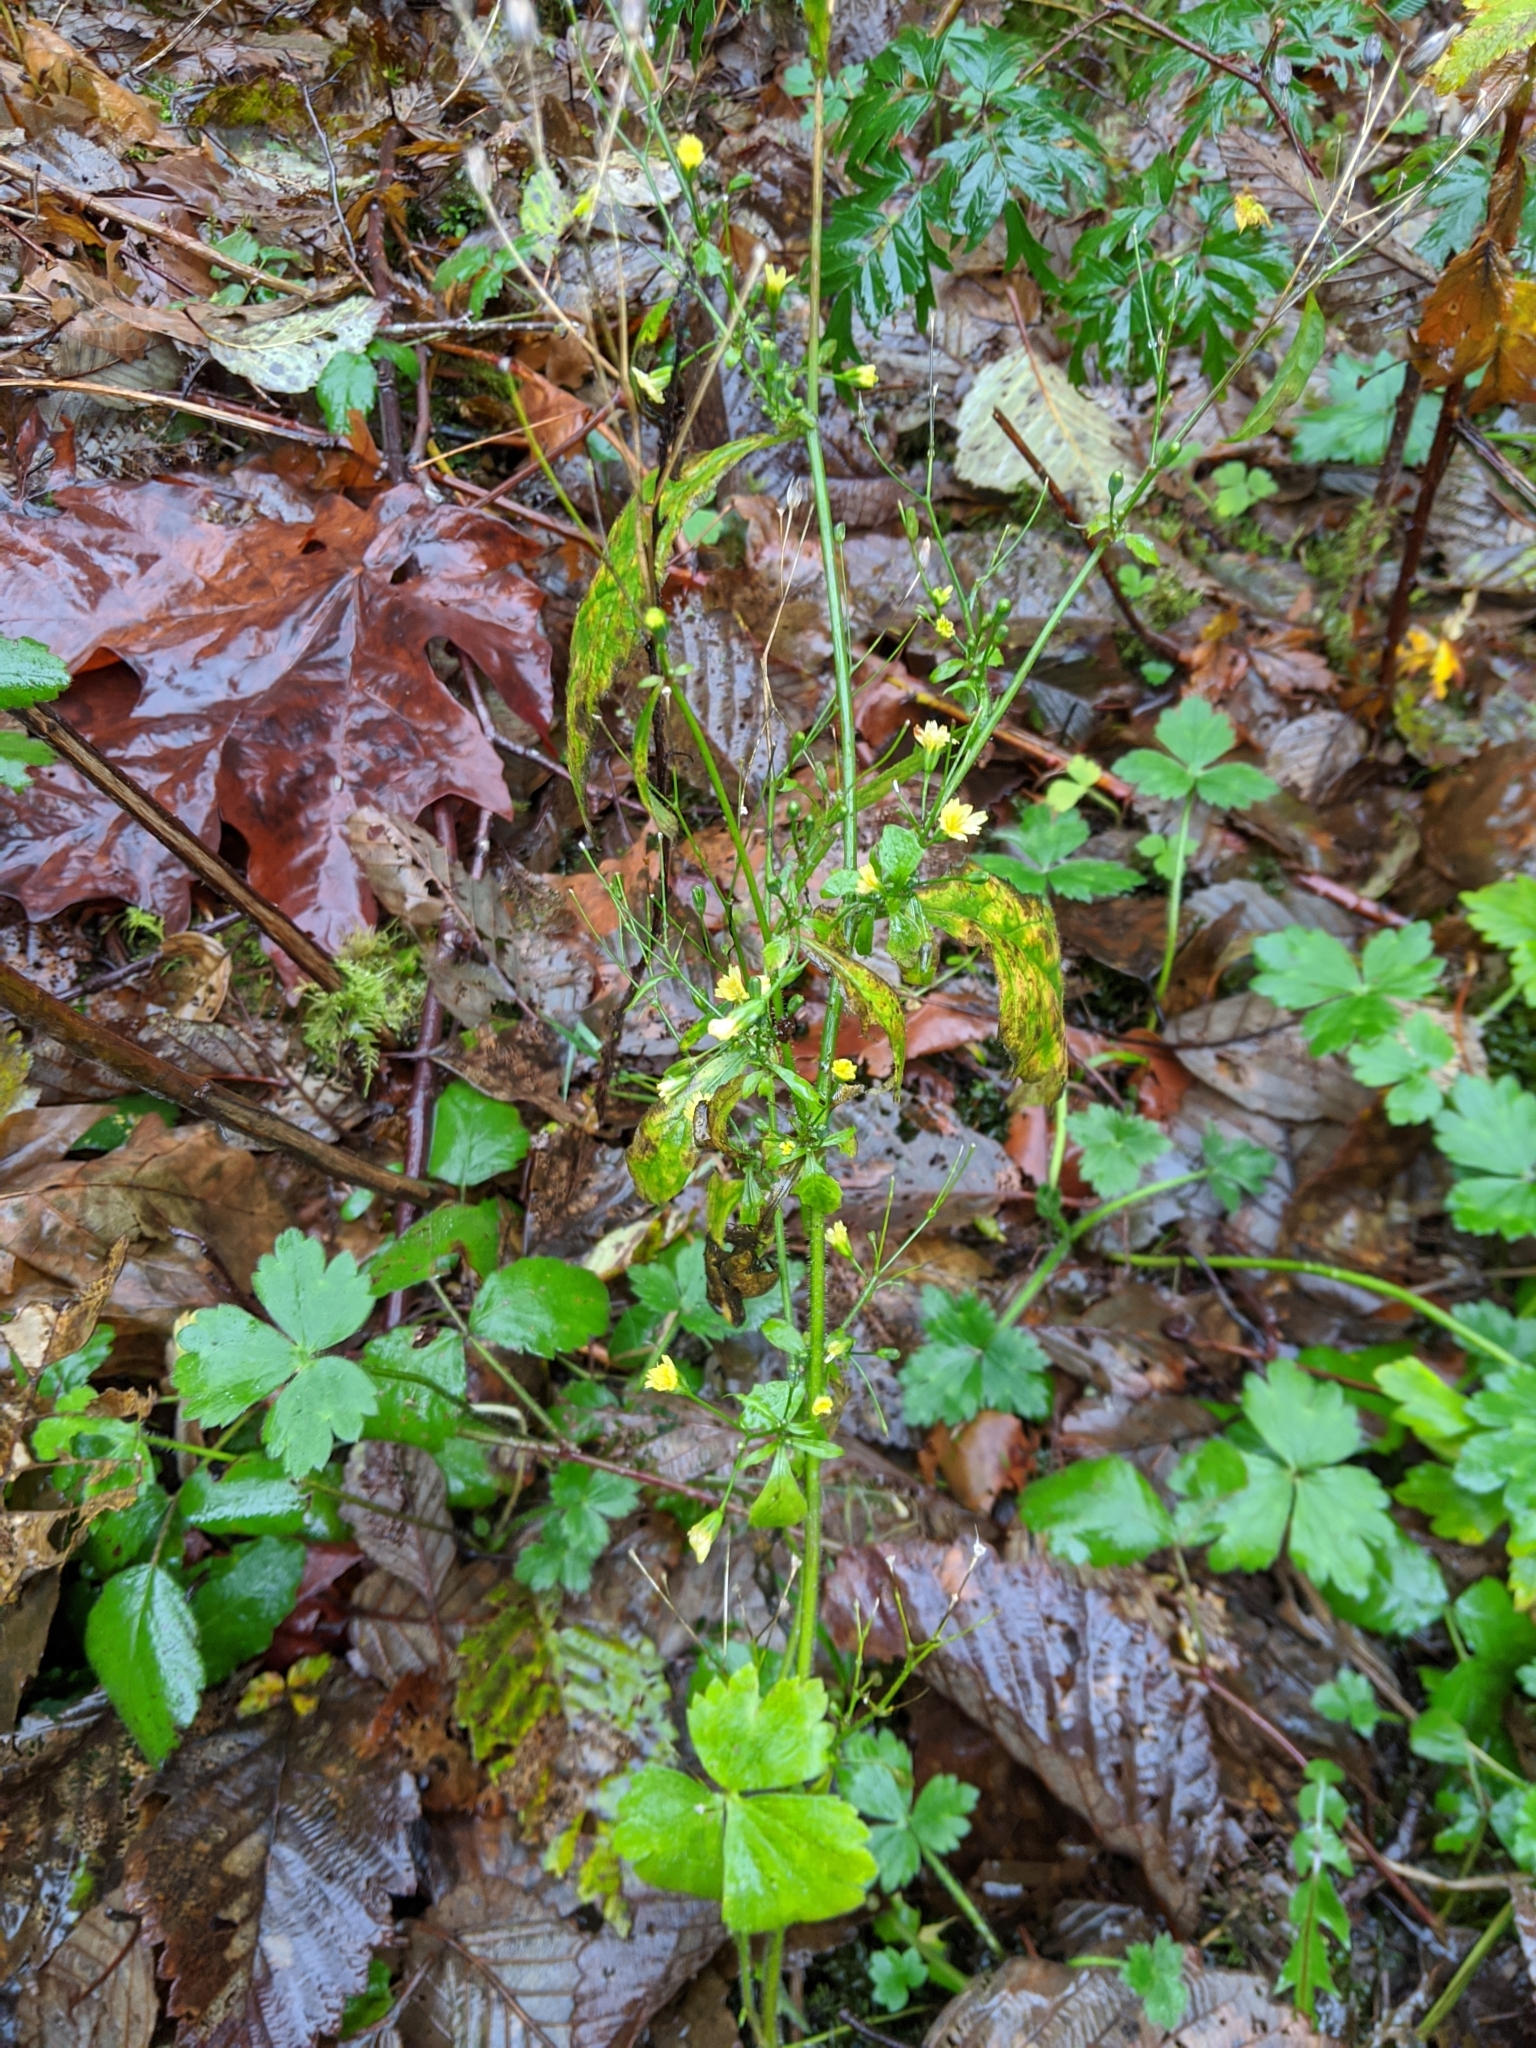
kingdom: Plantae
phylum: Tracheophyta
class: Magnoliopsida
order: Asterales
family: Asteraceae
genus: Lapsana
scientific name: Lapsana communis
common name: Nipplewort
